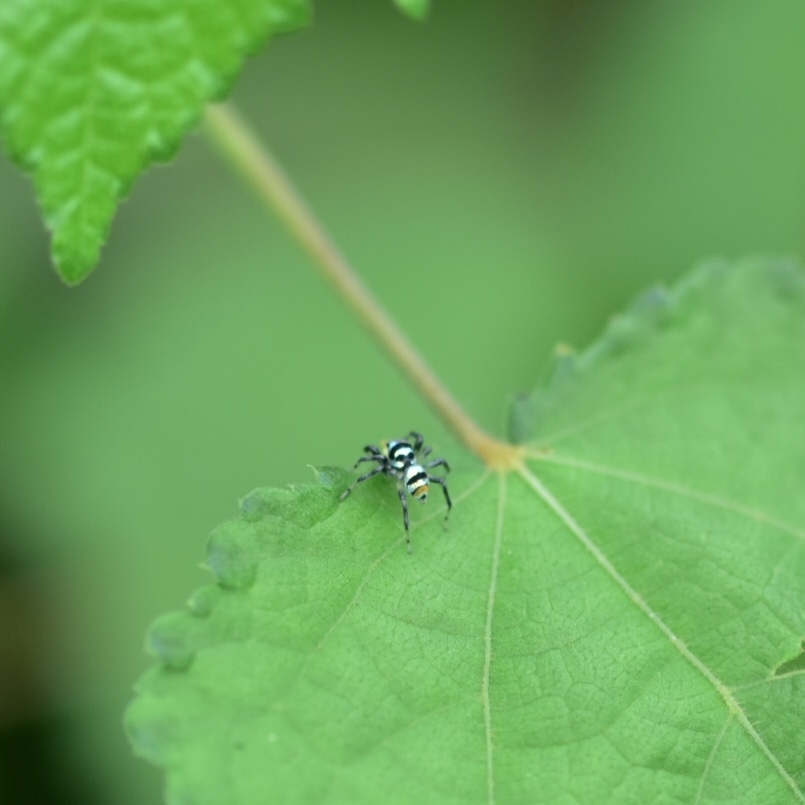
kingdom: Animalia
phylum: Arthropoda
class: Arachnida
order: Araneae
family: Salticidae
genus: Phintella
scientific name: Phintella vittata
